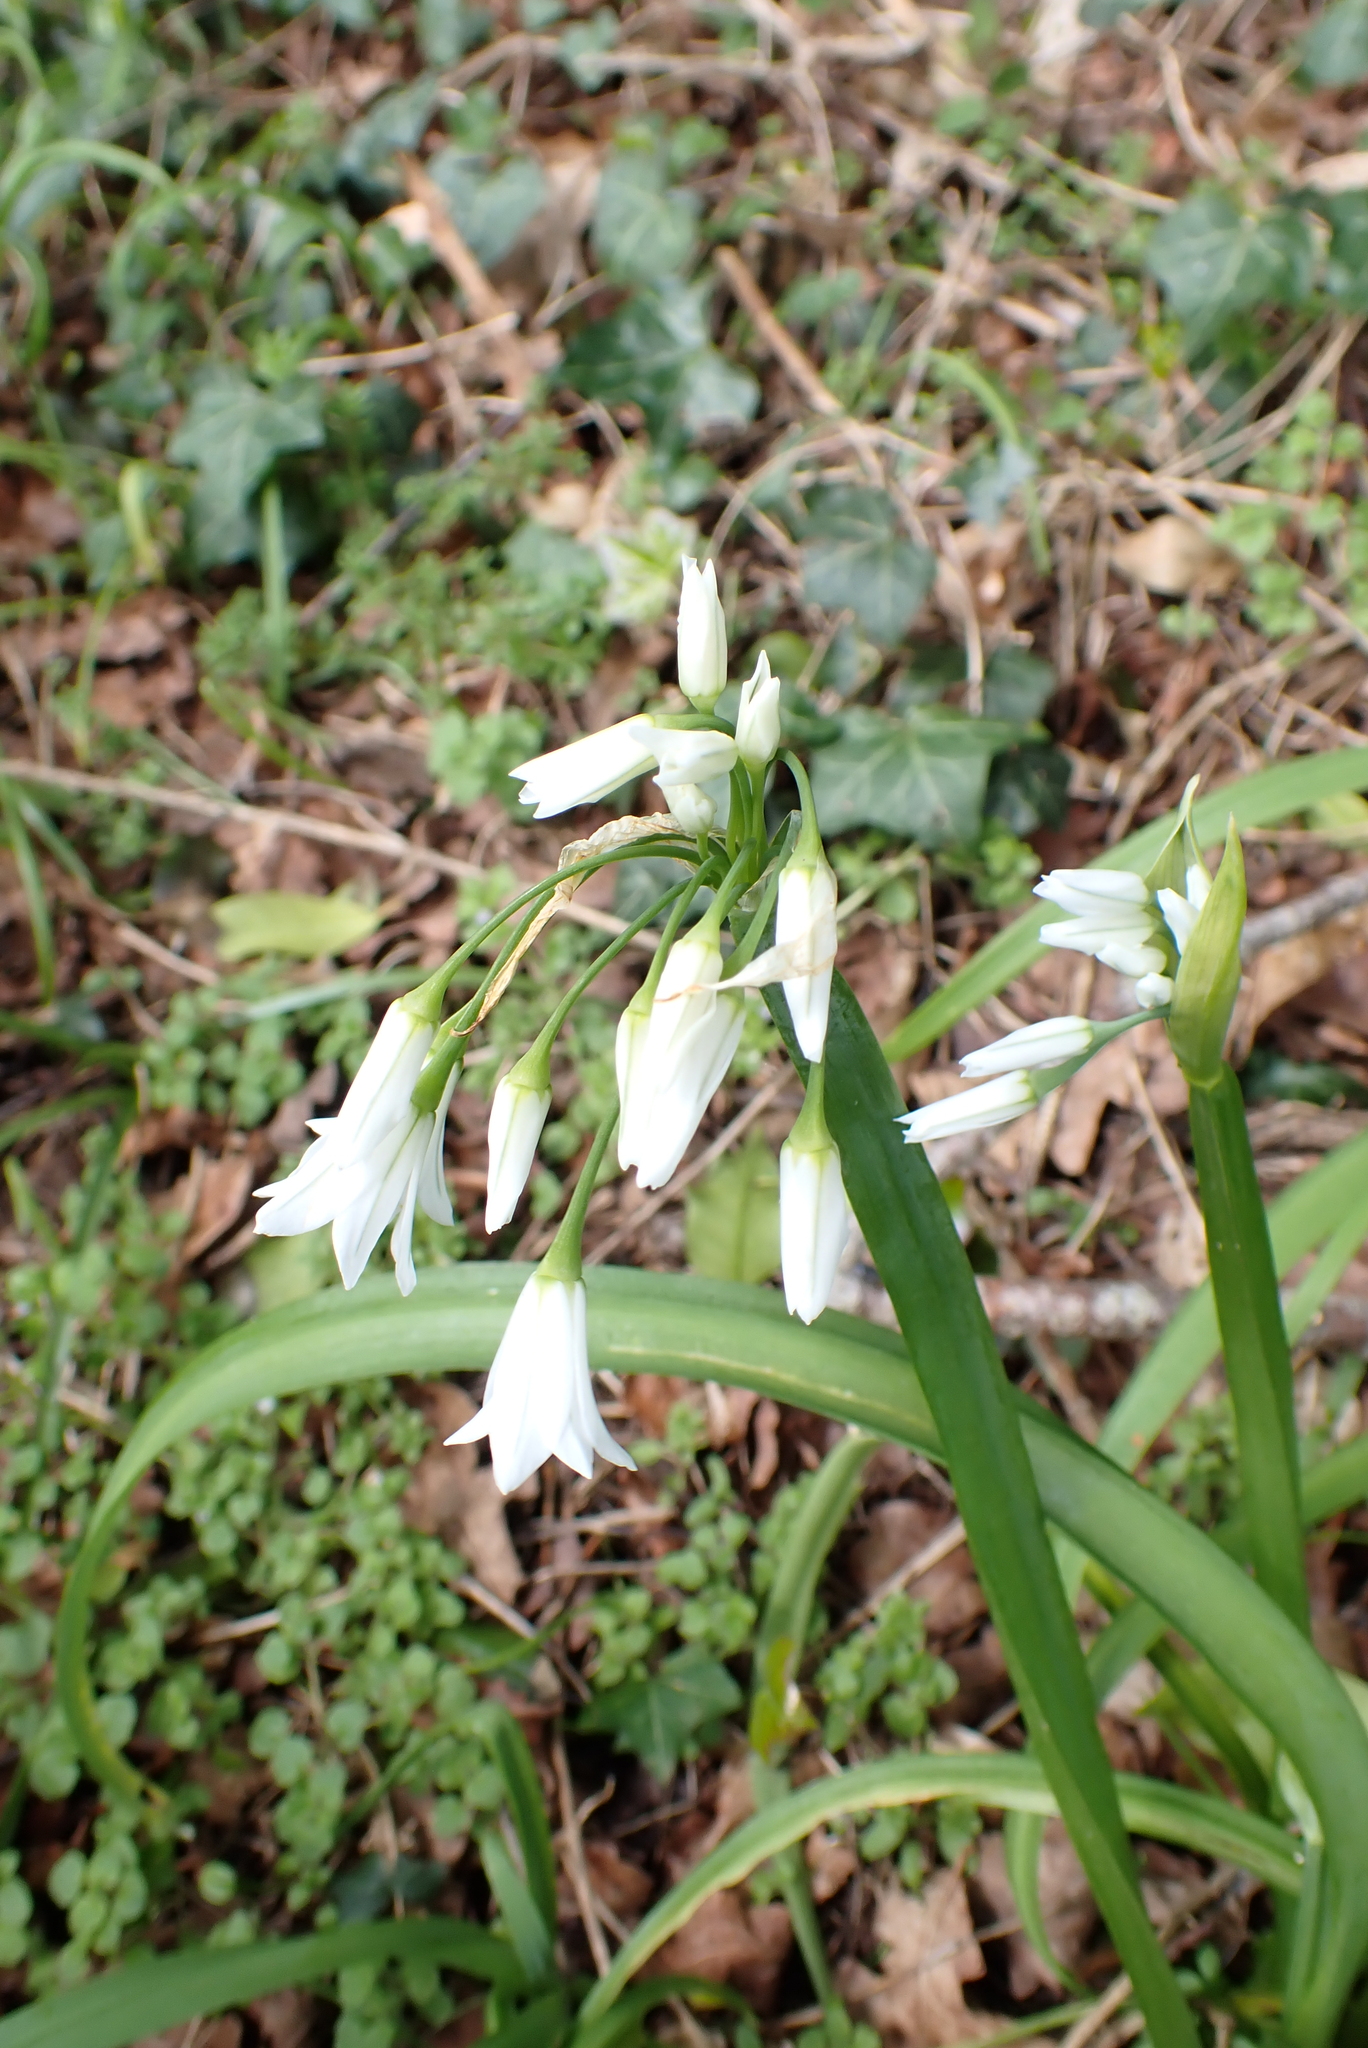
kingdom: Plantae
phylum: Tracheophyta
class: Liliopsida
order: Asparagales
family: Amaryllidaceae
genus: Allium
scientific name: Allium triquetrum
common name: Three-cornered garlic
